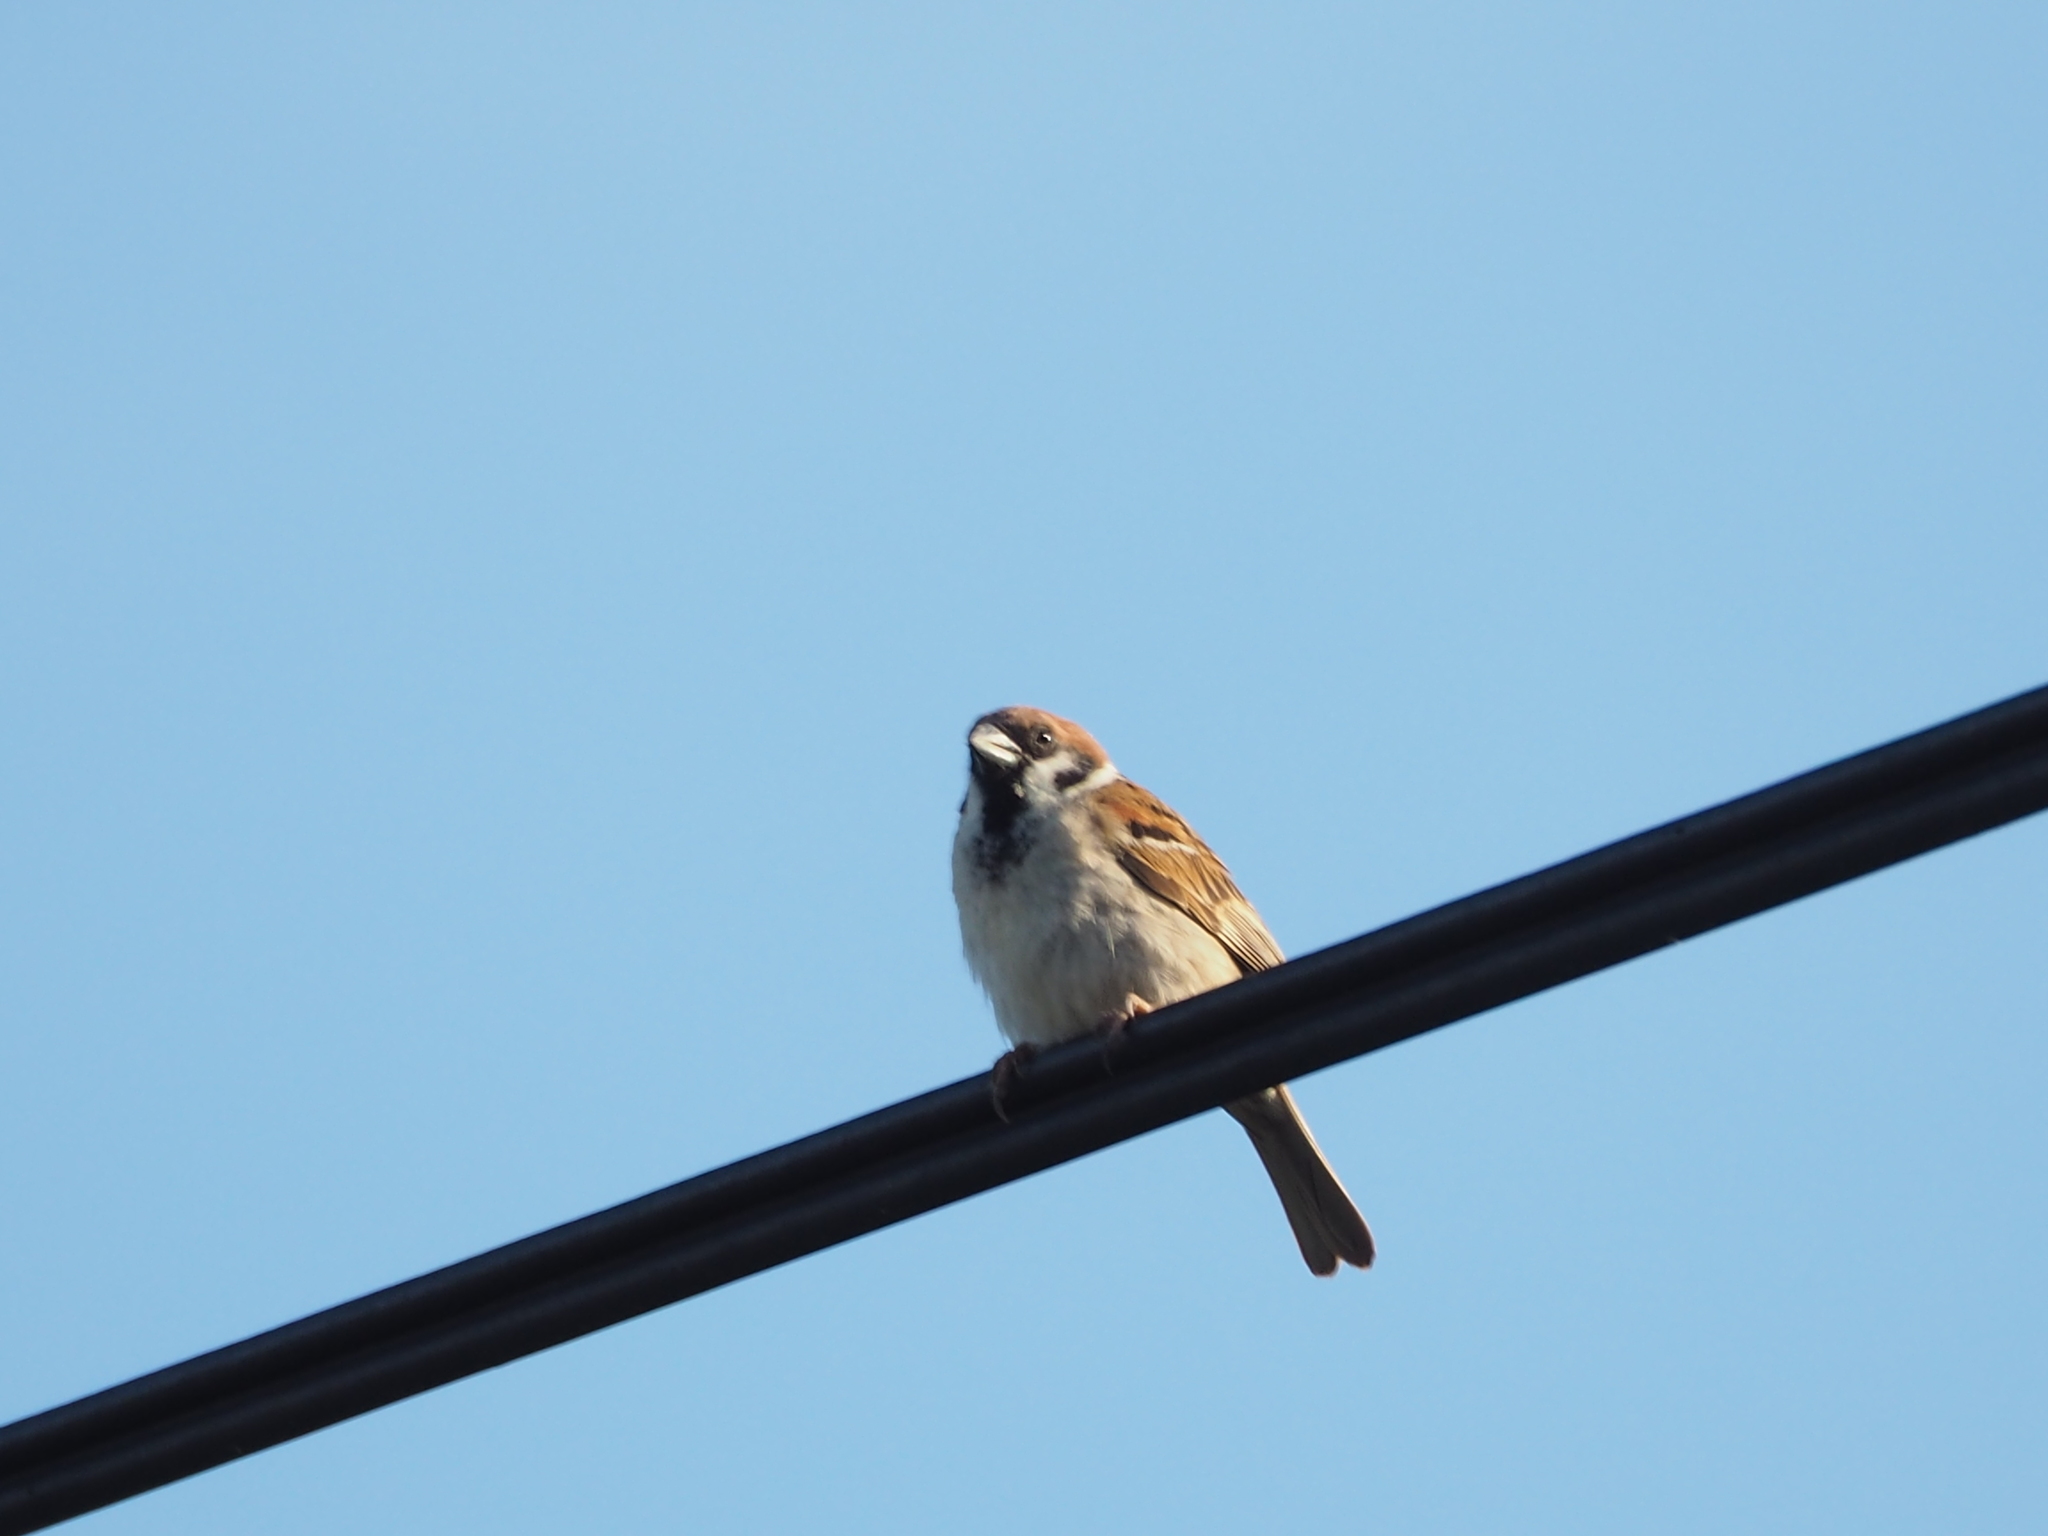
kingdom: Animalia
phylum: Chordata
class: Aves
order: Passeriformes
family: Passeridae
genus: Passer
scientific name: Passer montanus
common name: Eurasian tree sparrow
